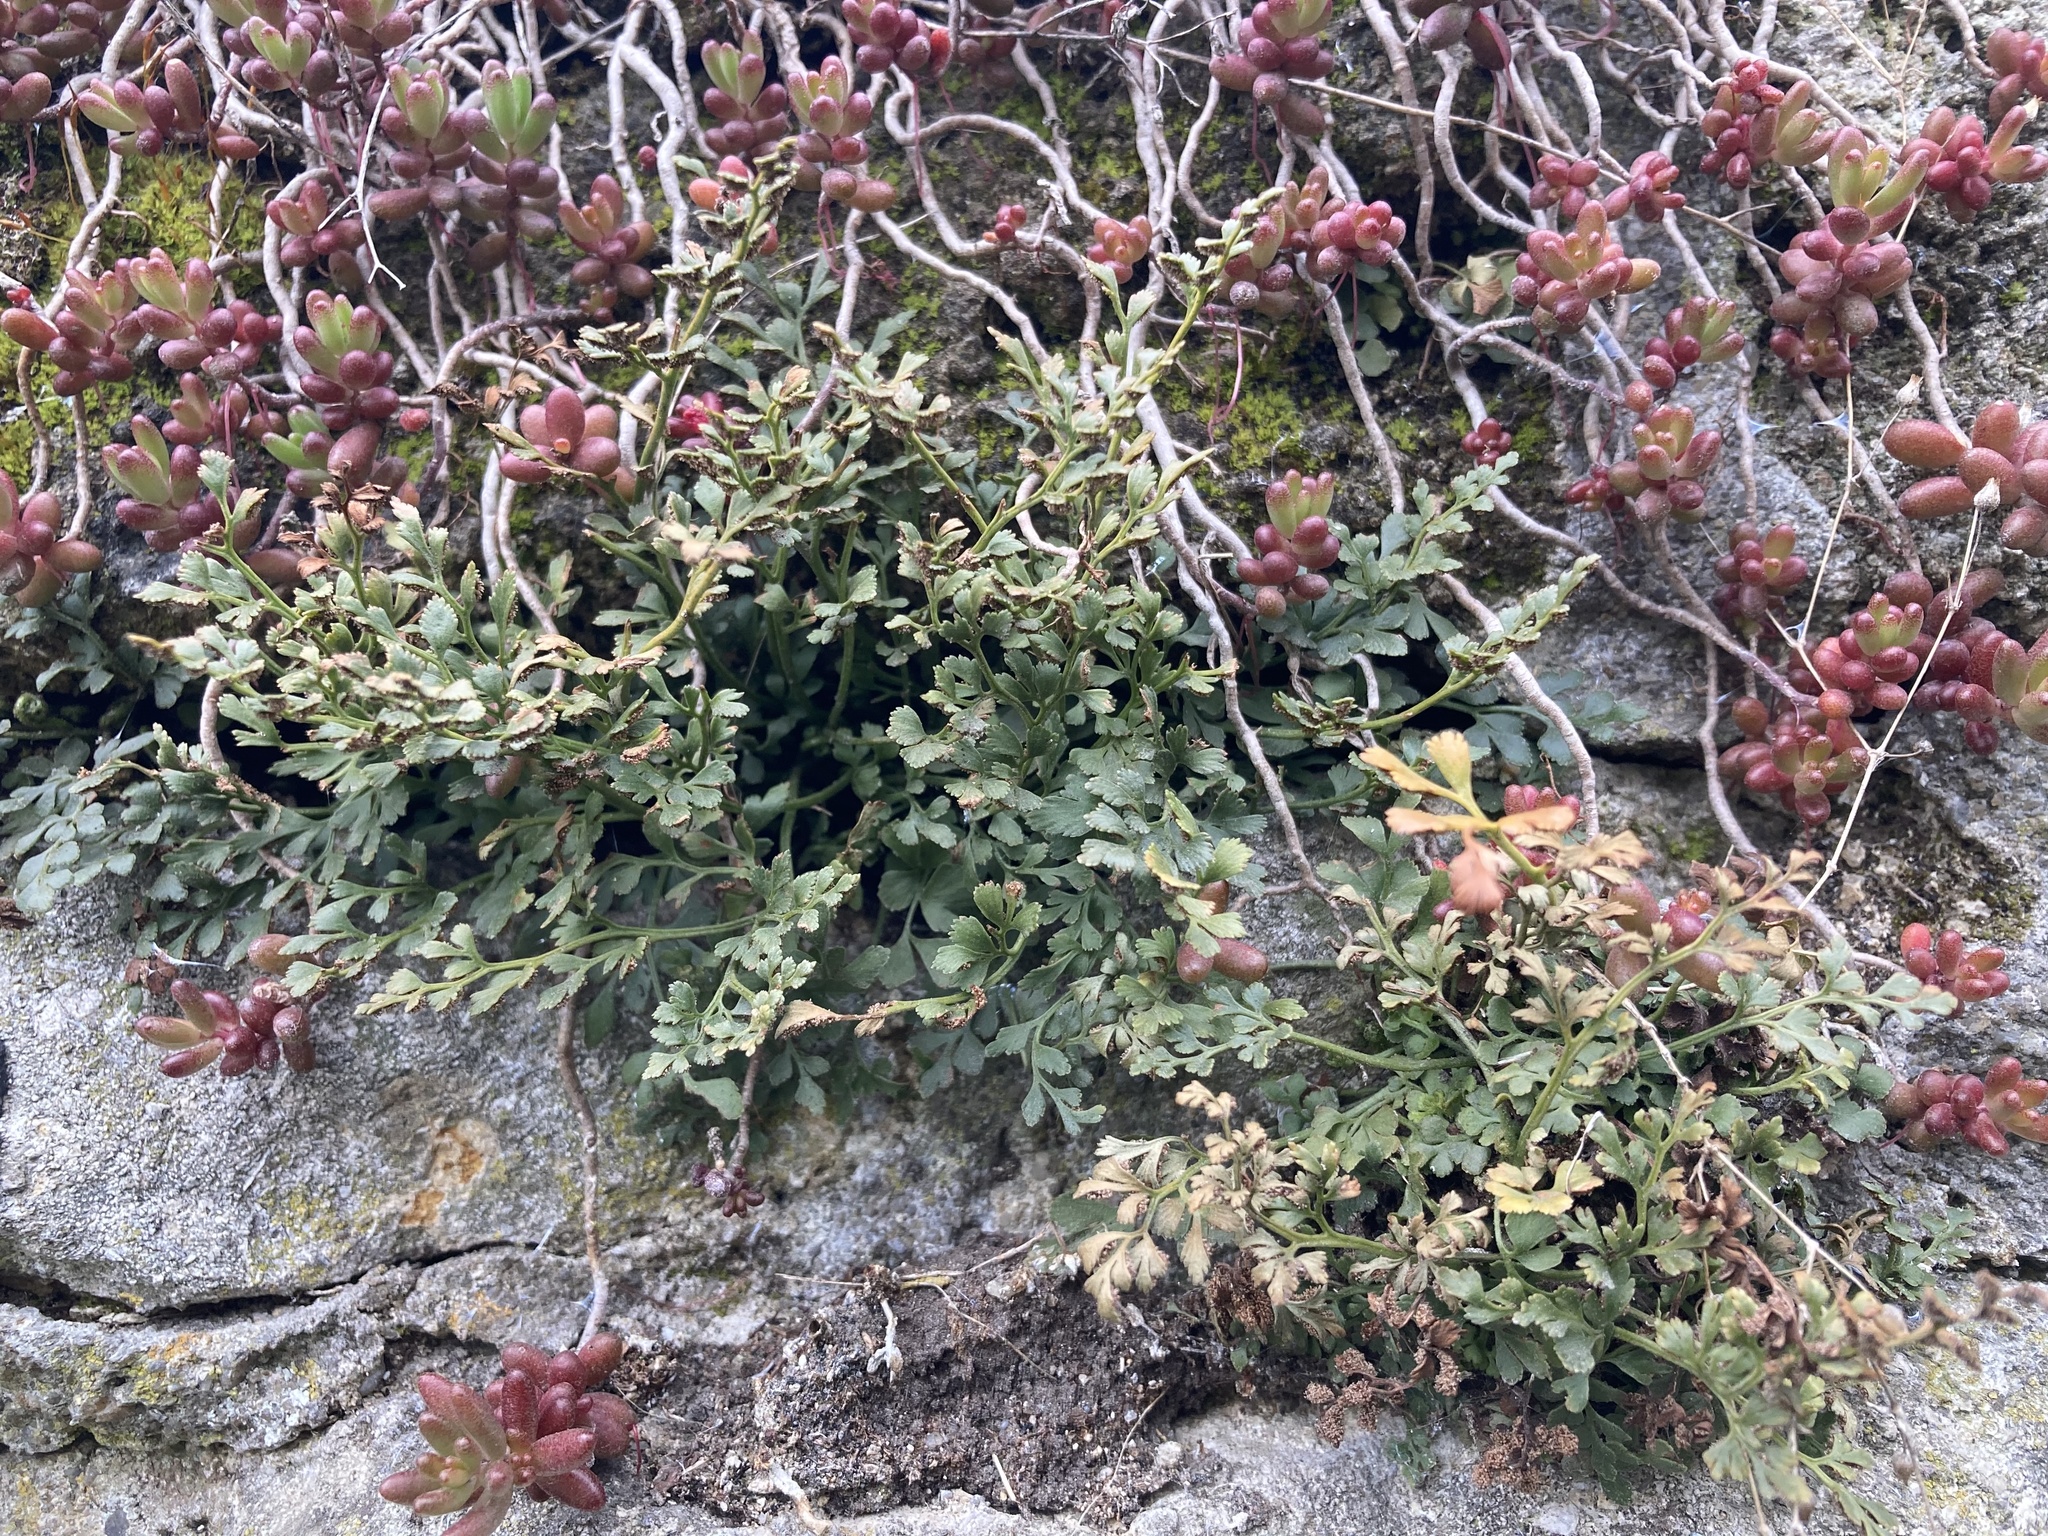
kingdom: Plantae
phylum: Tracheophyta
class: Polypodiopsida
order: Polypodiales
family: Aspleniaceae
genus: Asplenium
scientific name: Asplenium ruta-muraria
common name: Wall-rue
